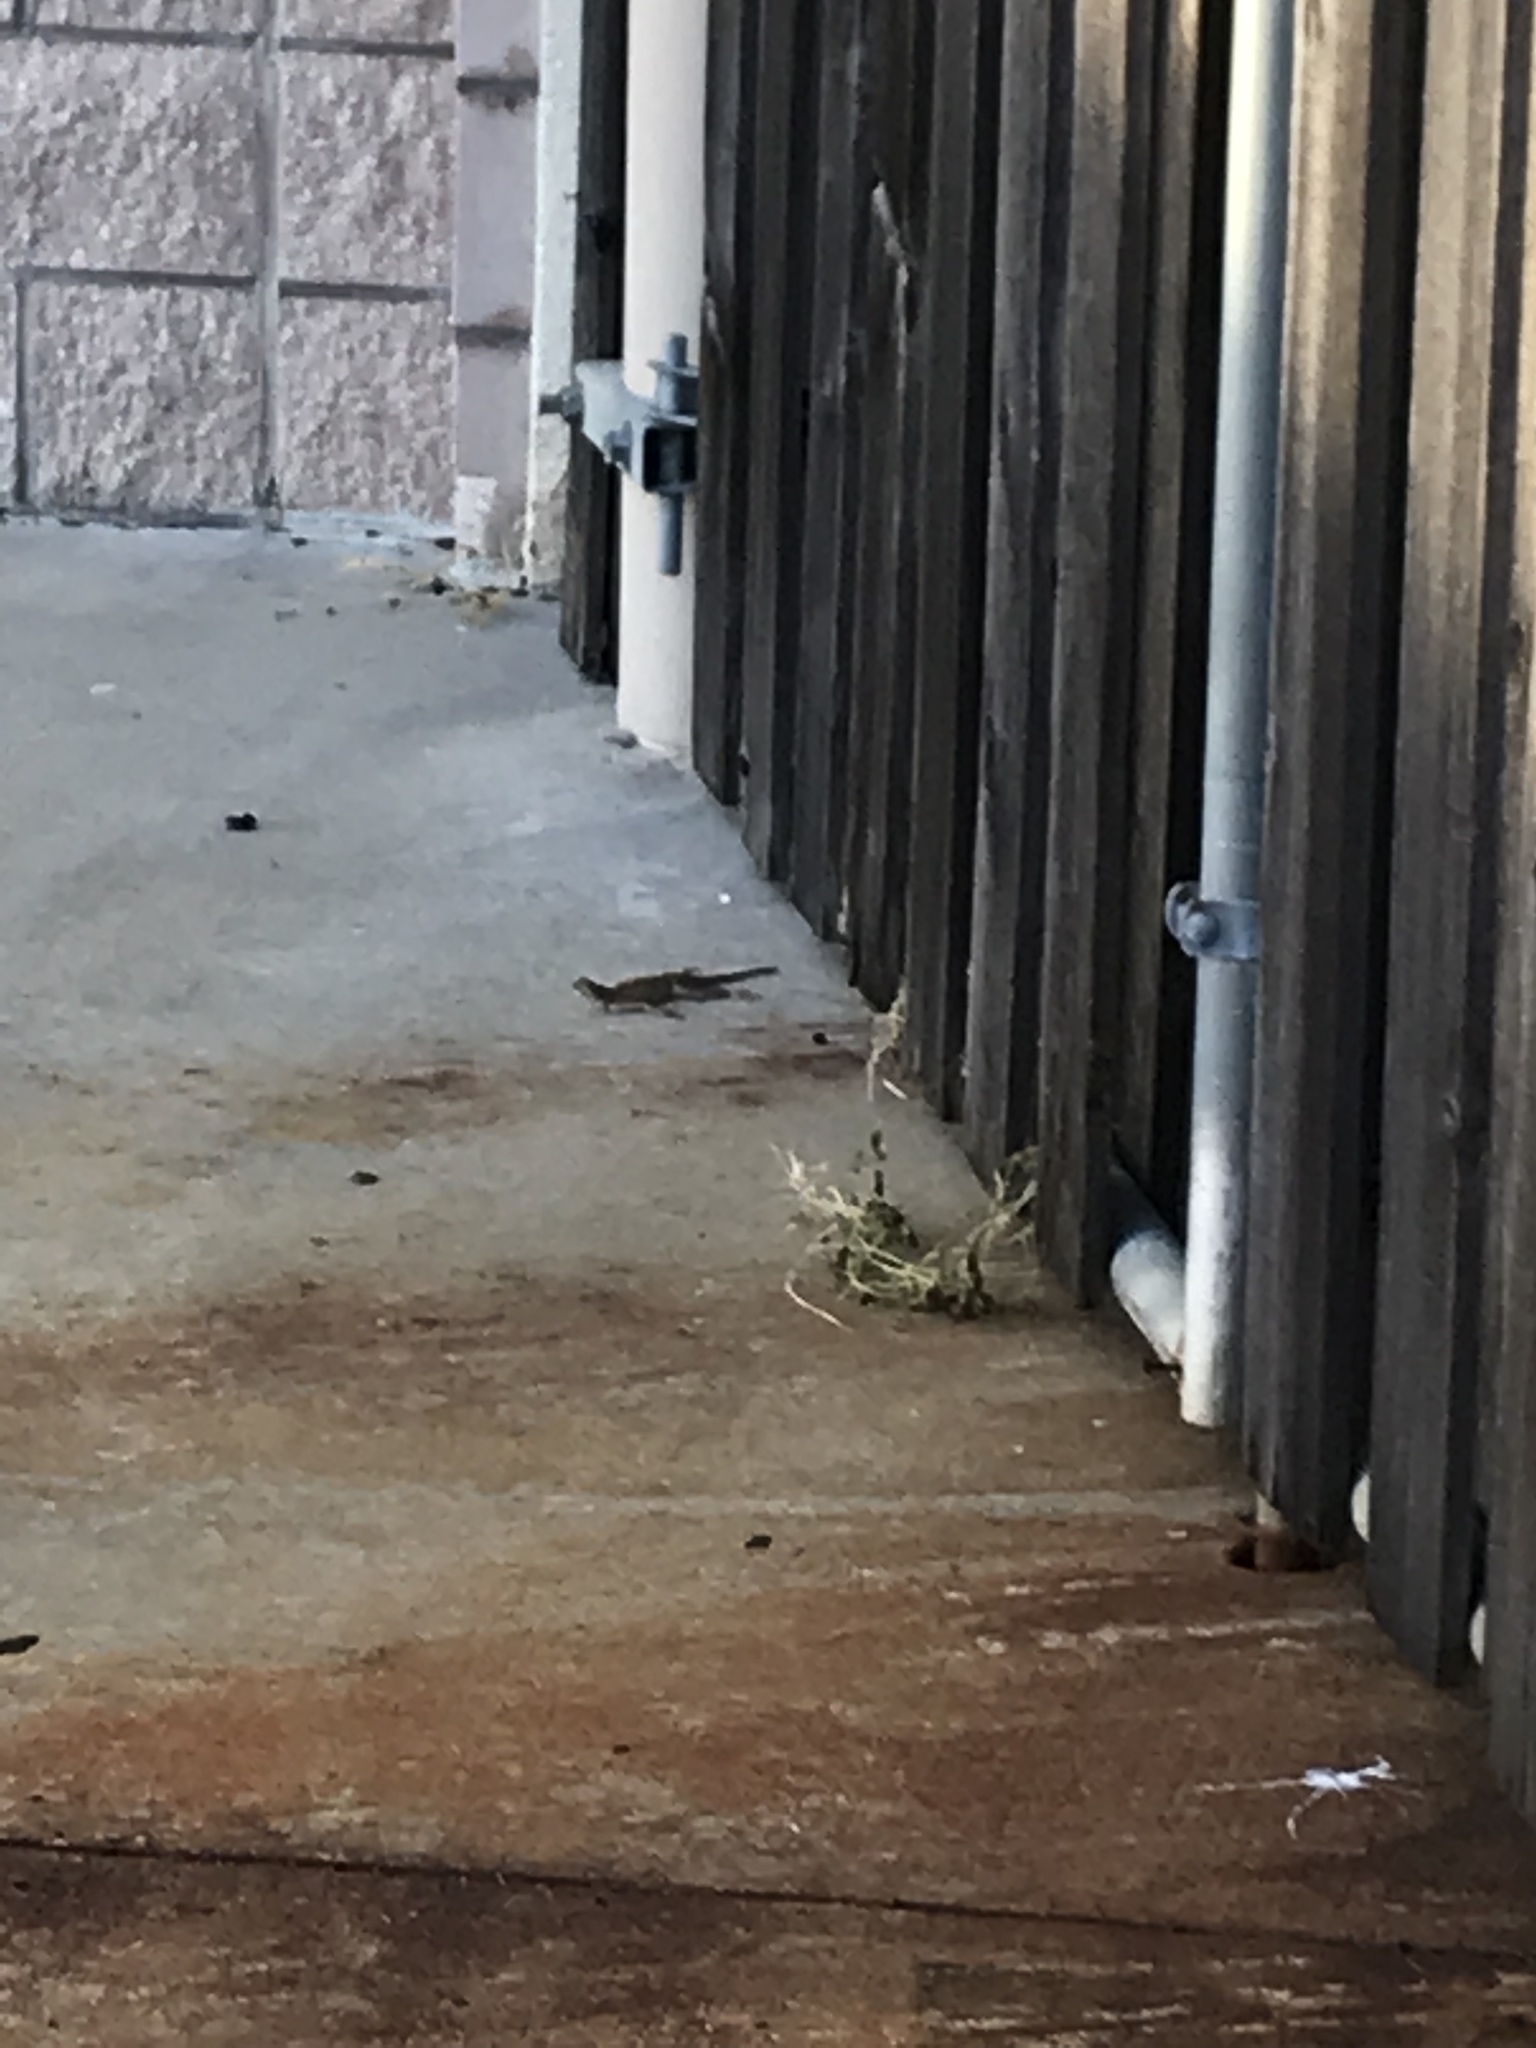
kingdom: Animalia
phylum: Chordata
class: Squamata
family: Agamidae
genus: Agama
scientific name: Agama picticauda
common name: Red-headed agama
